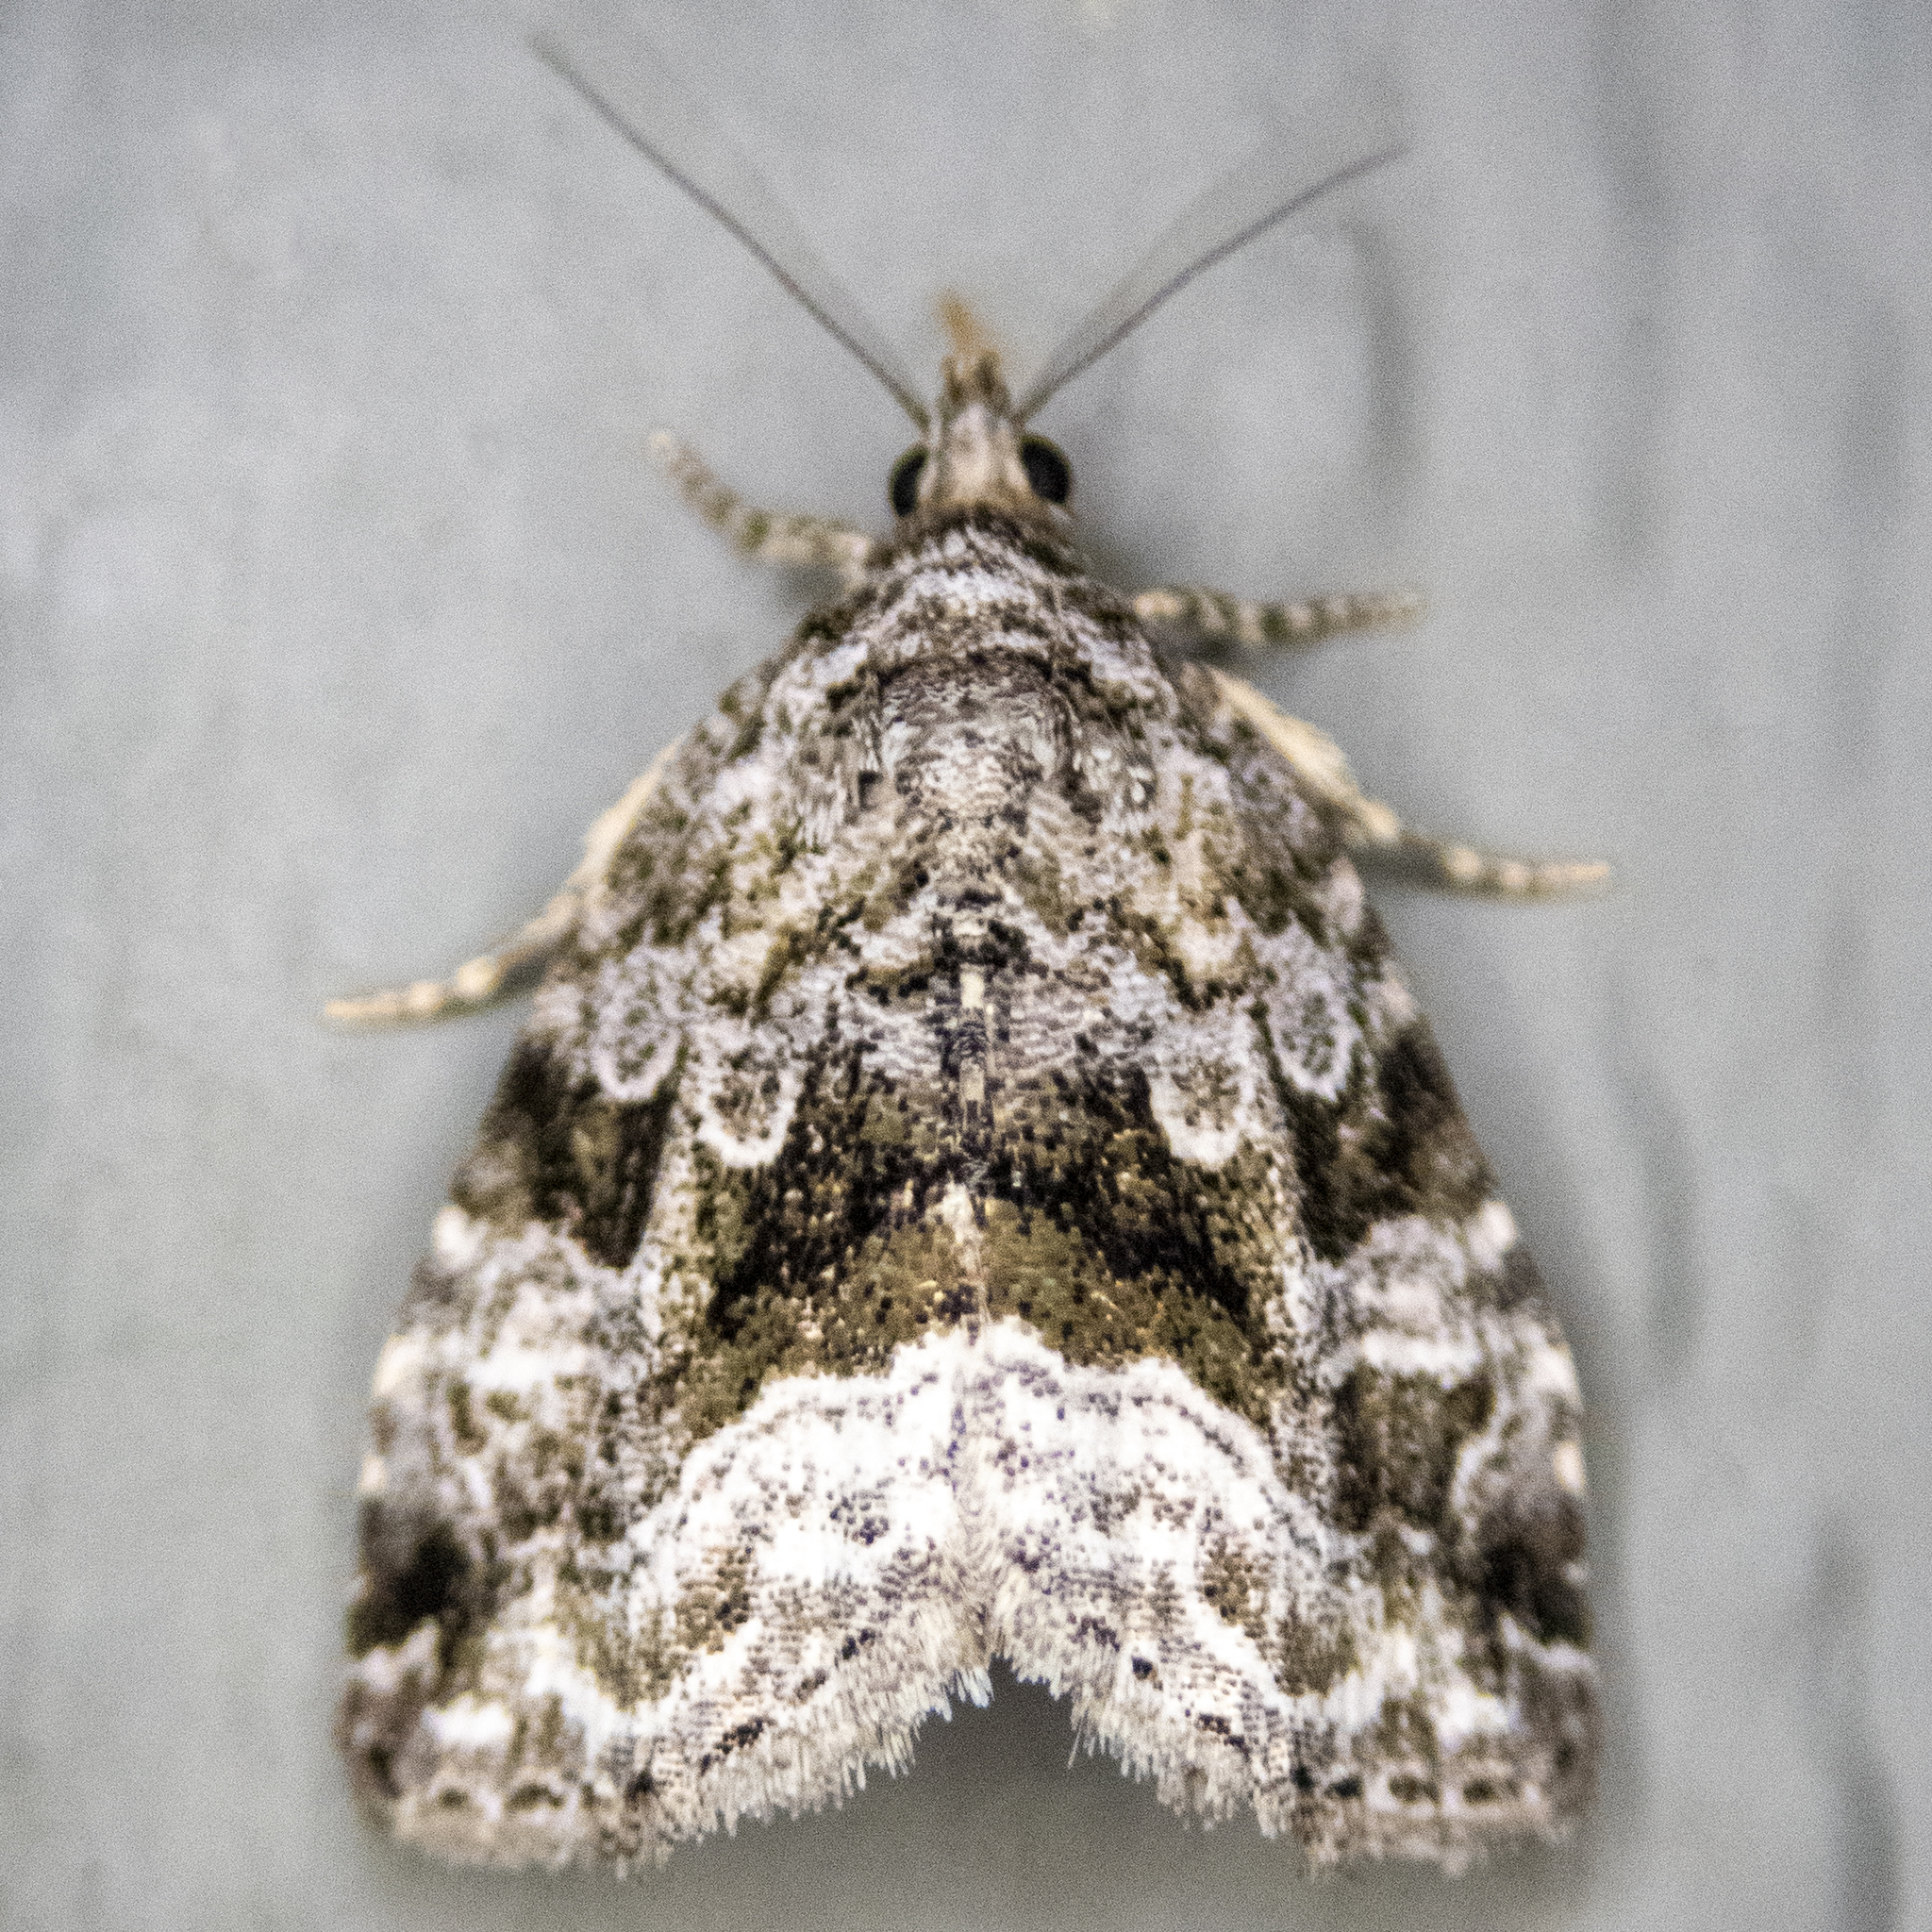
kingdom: Animalia
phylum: Arthropoda
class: Insecta
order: Lepidoptera
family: Noctuidae
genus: Protodeltote
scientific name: Protodeltote muscosula
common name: Large mossy glyph
